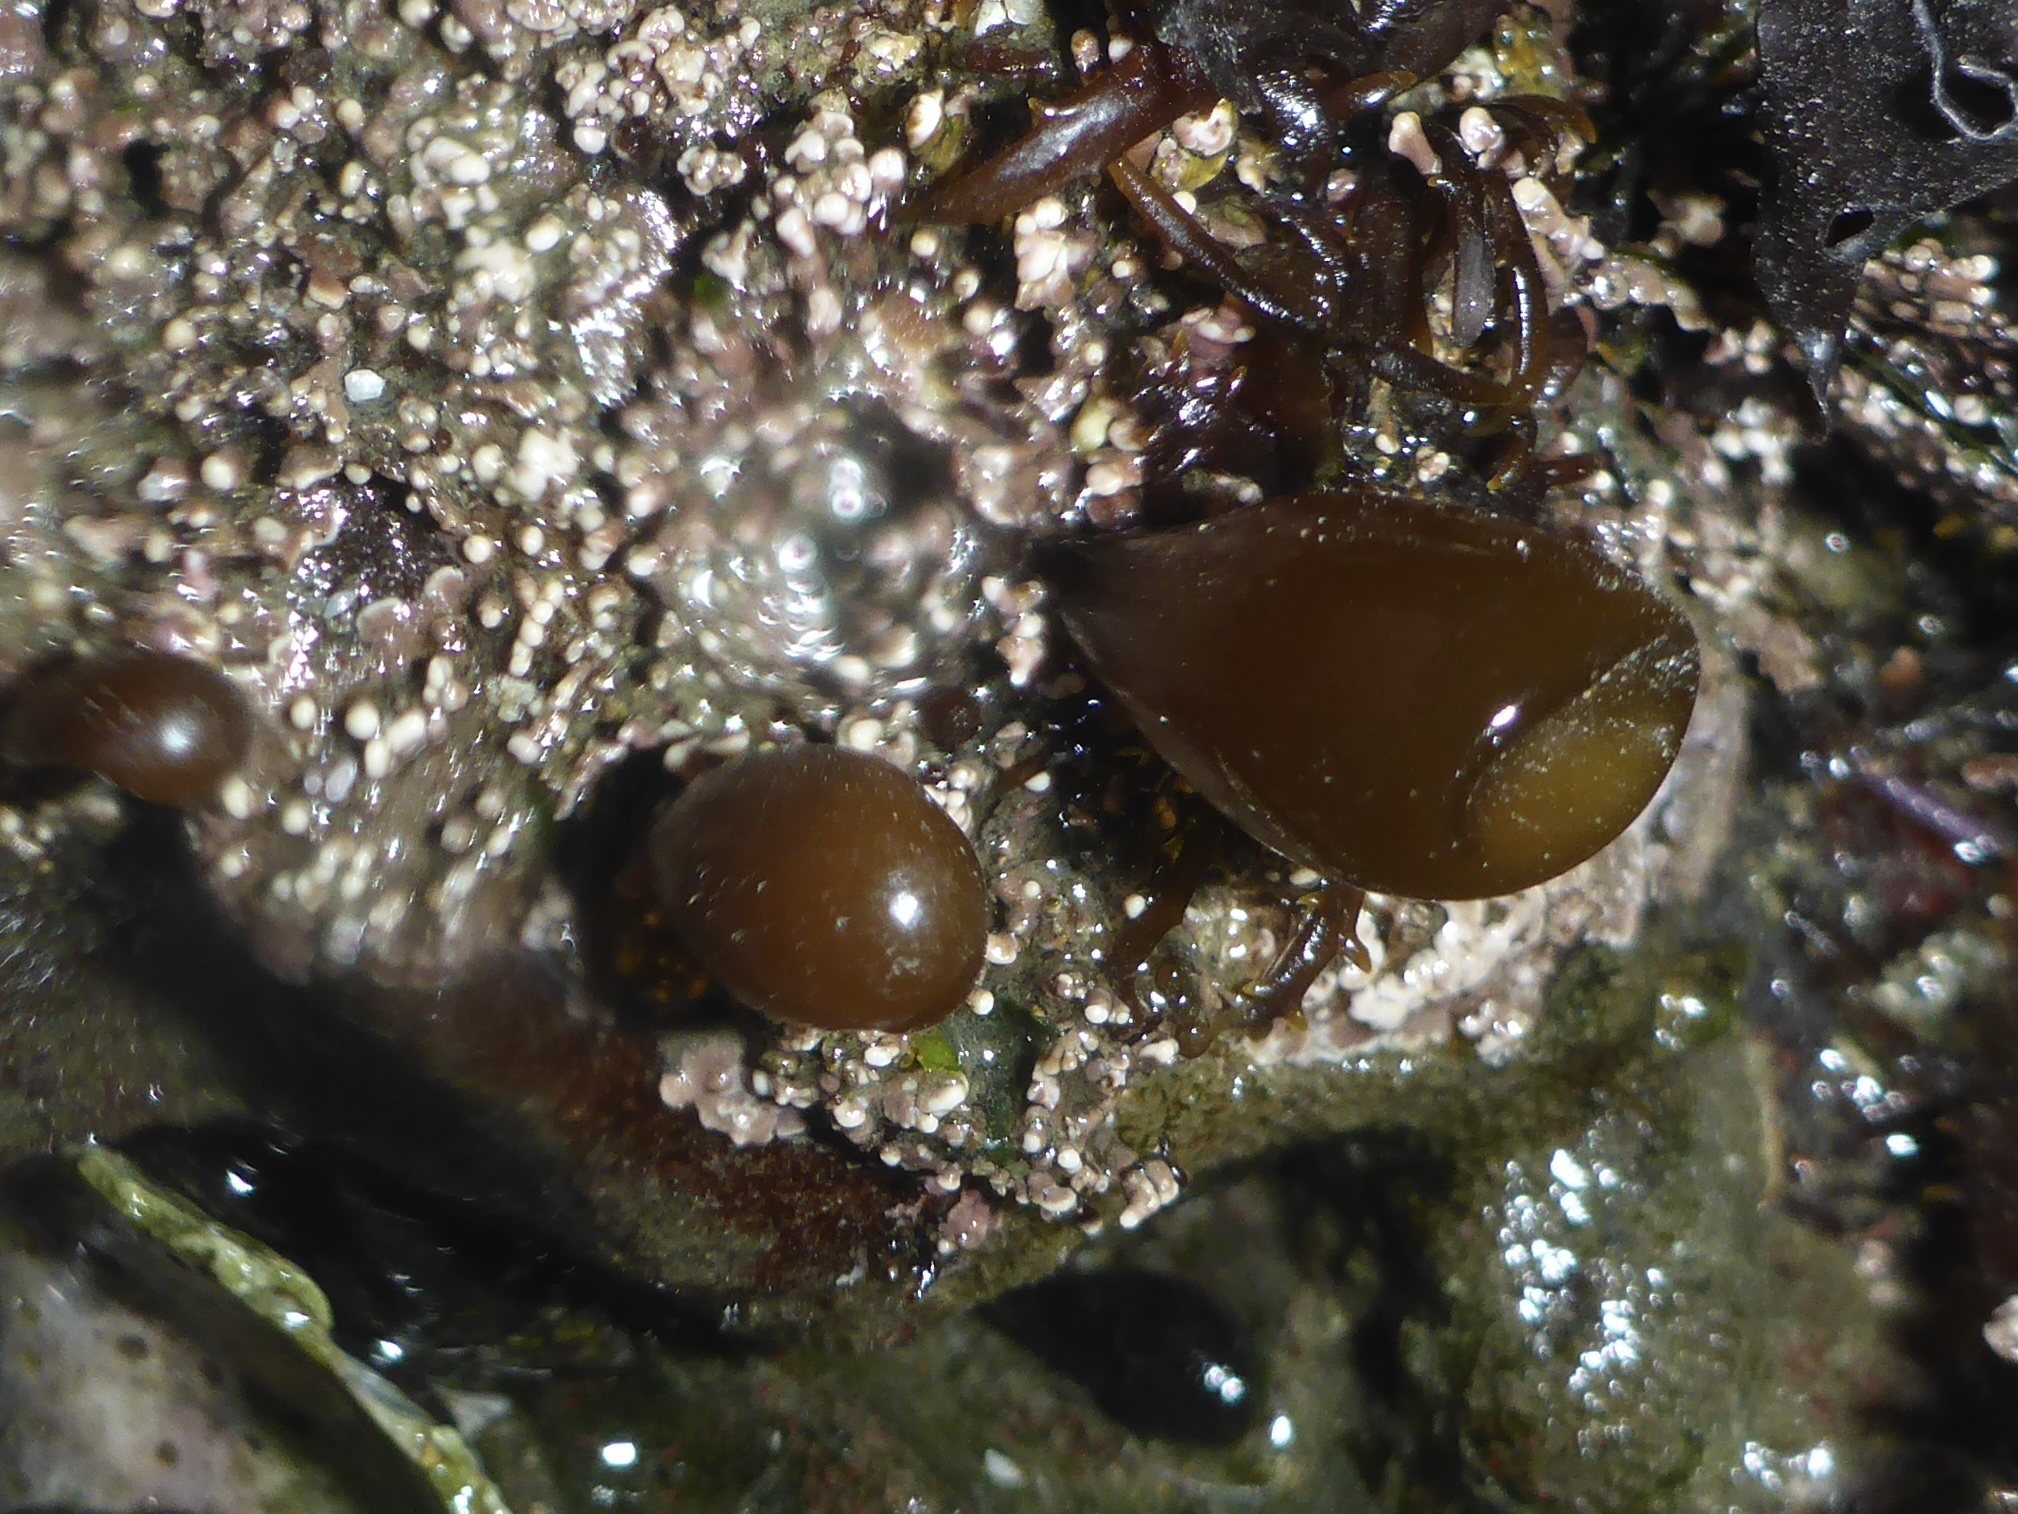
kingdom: Plantae
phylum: Rhodophyta
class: Florideophyceae
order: Palmariales
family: Palmariaceae
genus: Halosaccion
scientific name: Halosaccion glandiforme
